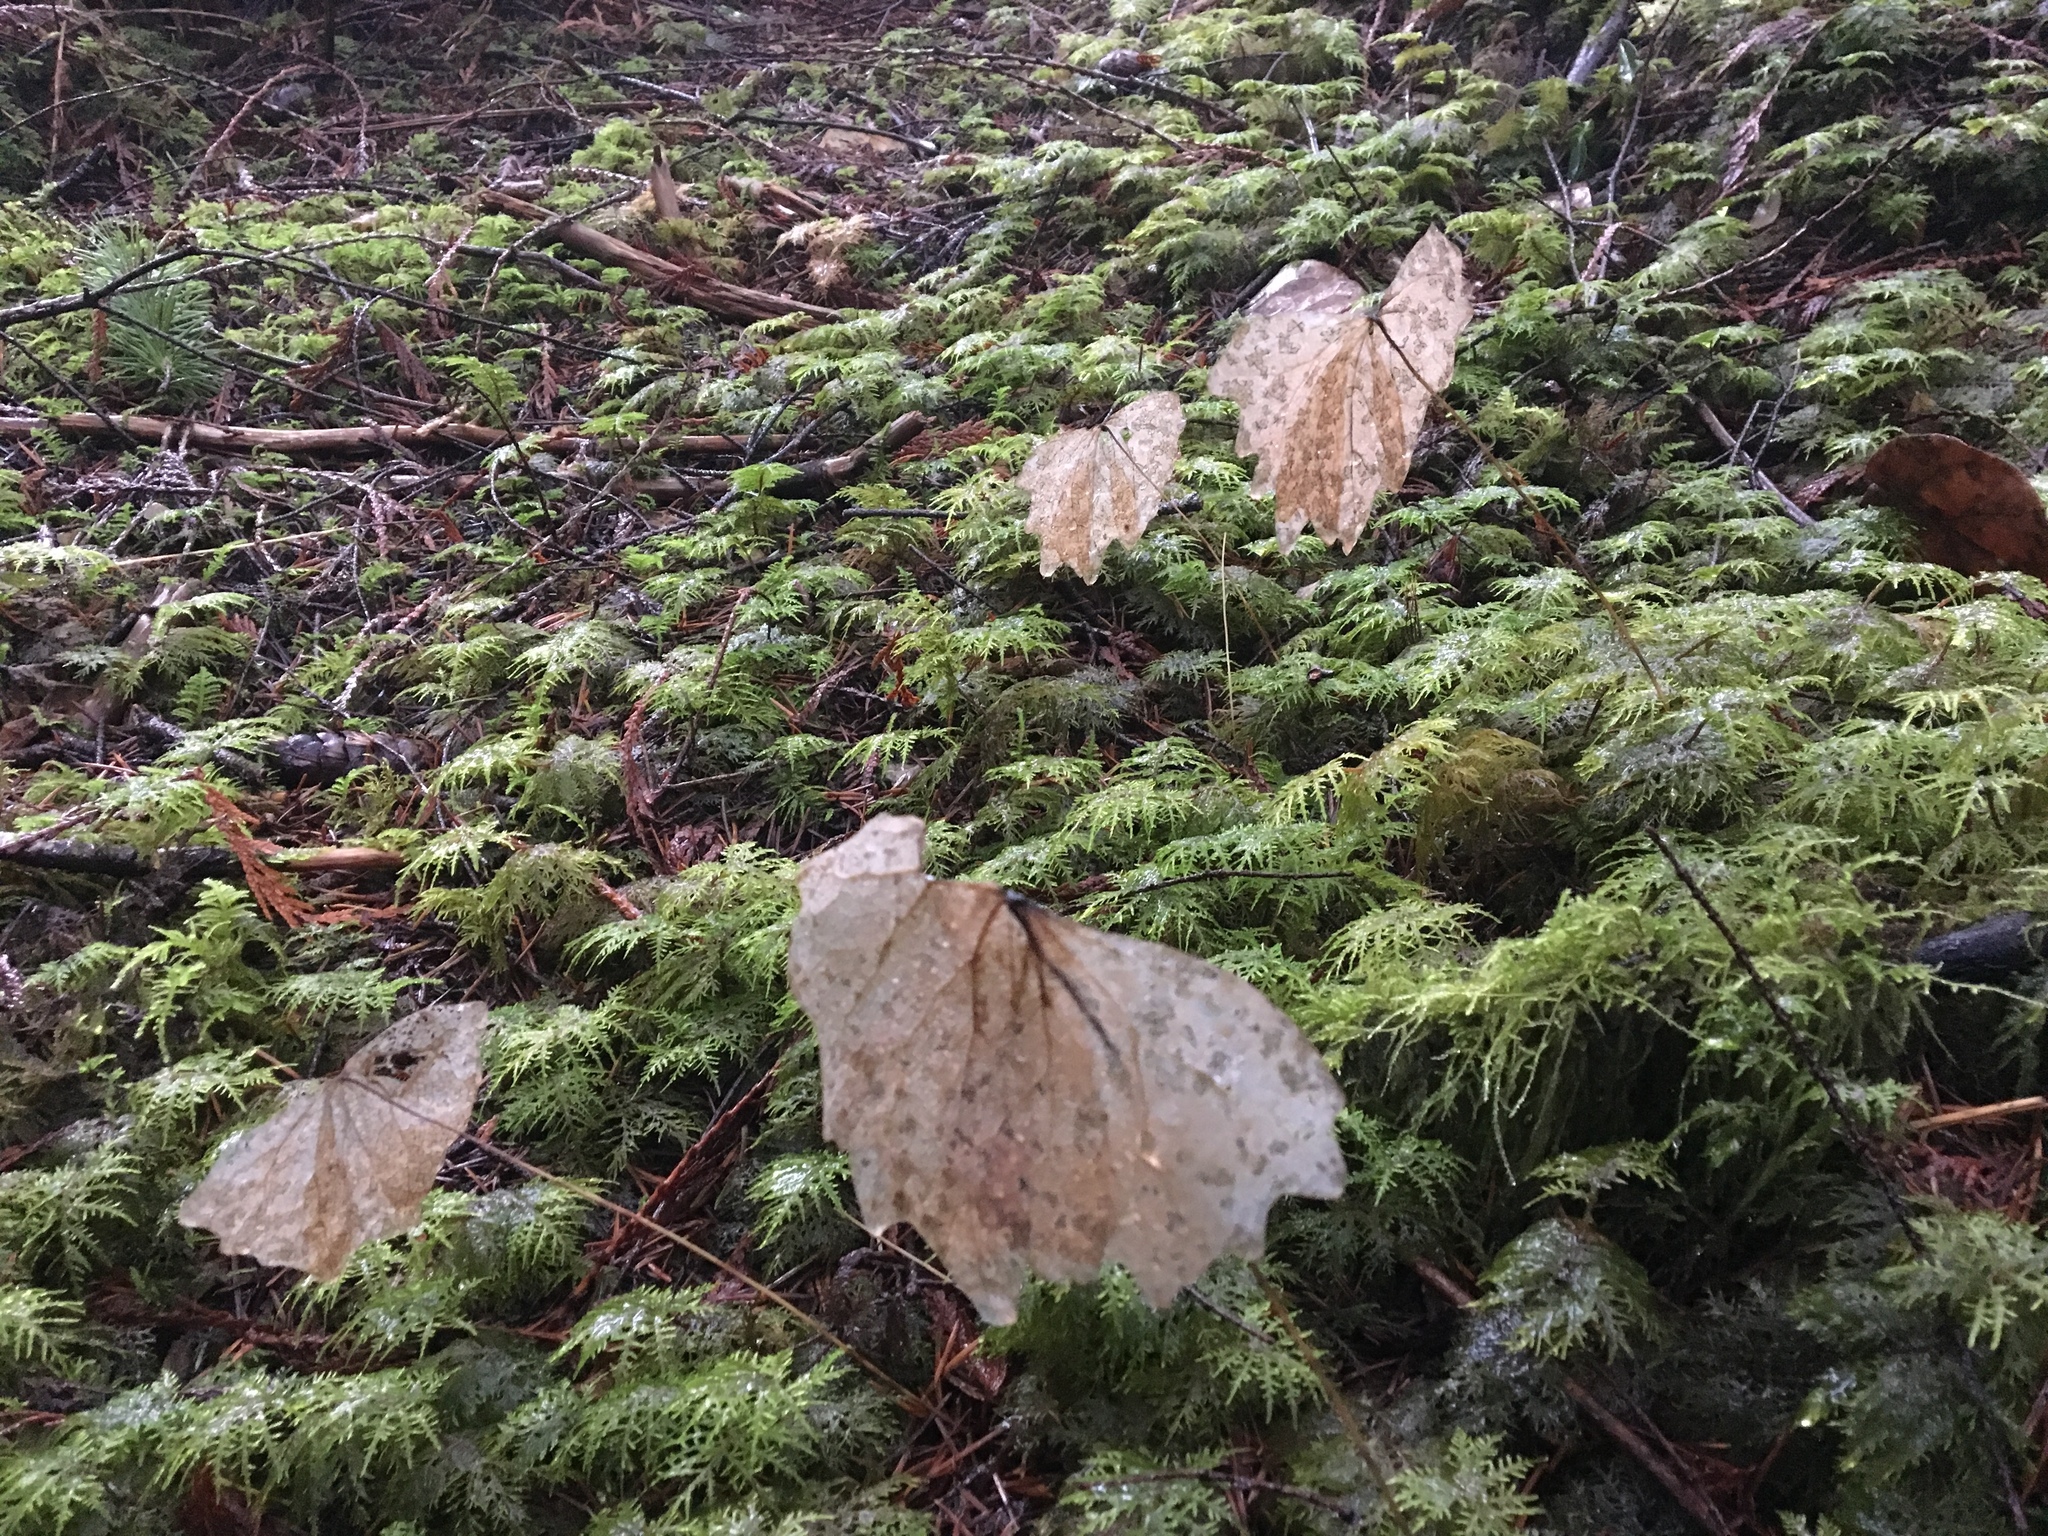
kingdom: Plantae
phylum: Tracheophyta
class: Magnoliopsida
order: Ranunculales
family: Berberidaceae
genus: Achlys
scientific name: Achlys triphylla
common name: Vanilla-leaf
